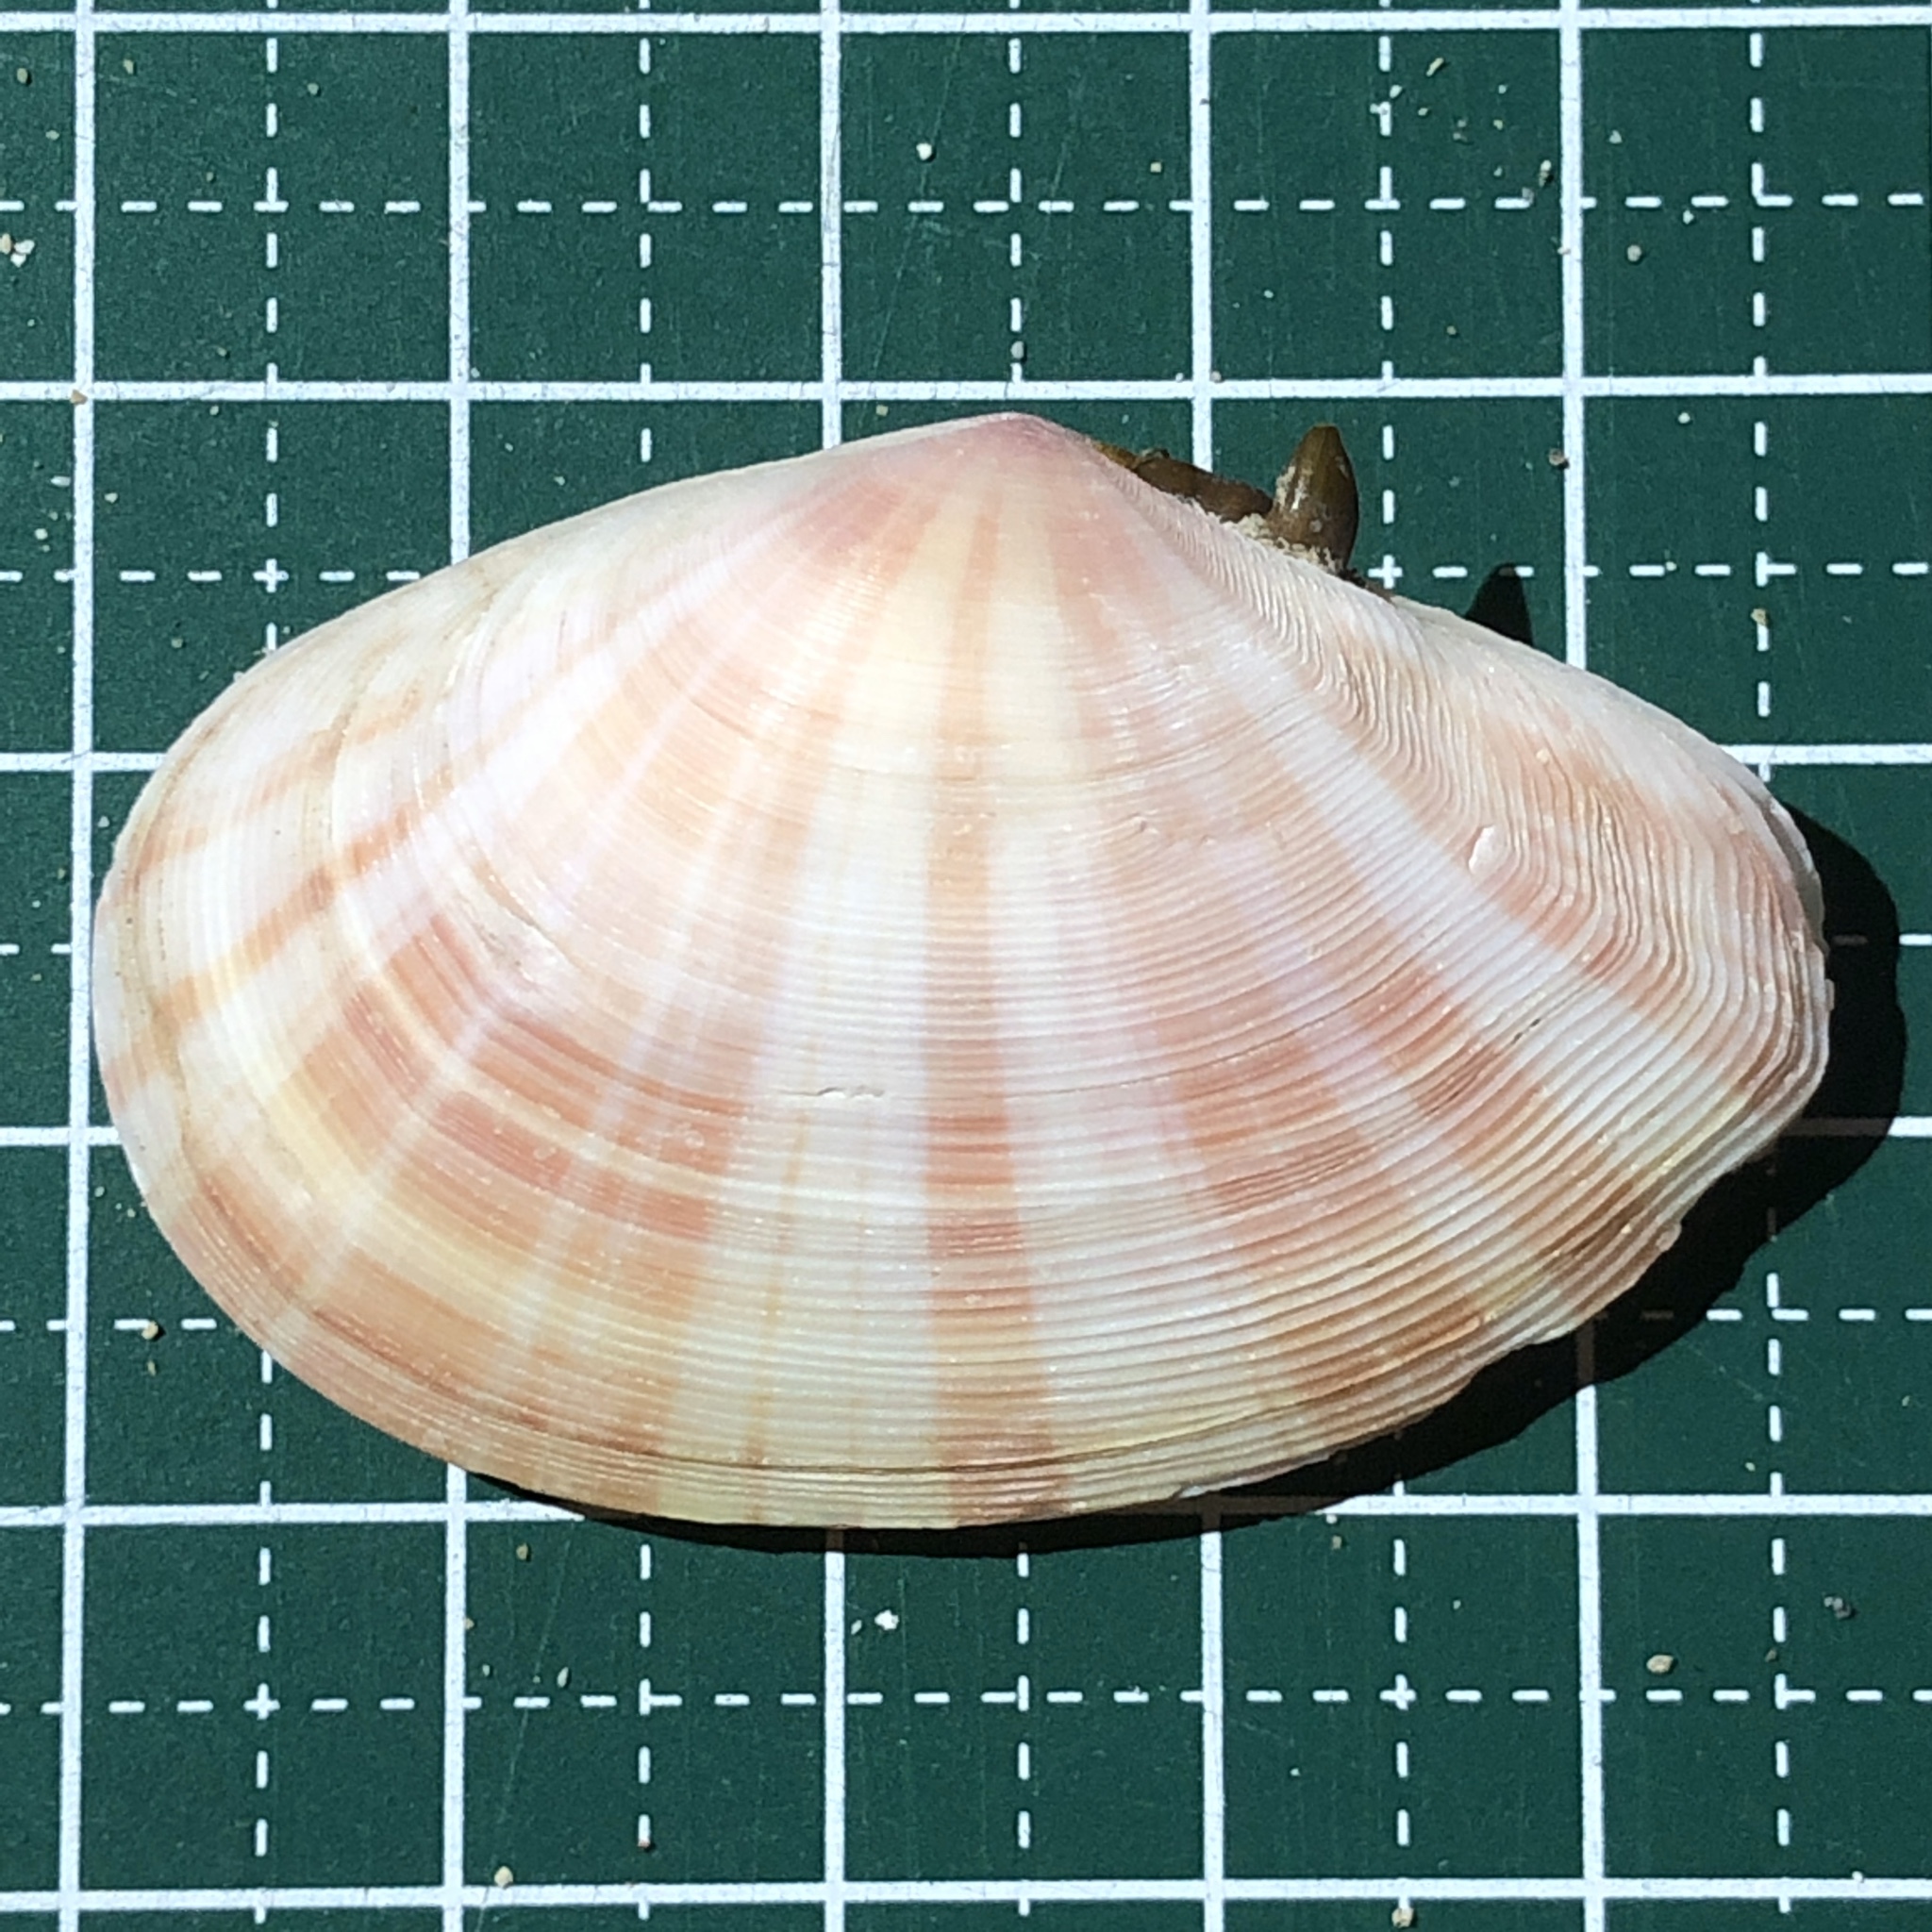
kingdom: Animalia
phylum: Mollusca
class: Bivalvia
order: Cardiida
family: Tellinidae
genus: Tellinella
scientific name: Tellinella virgata
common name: Striped tellin
